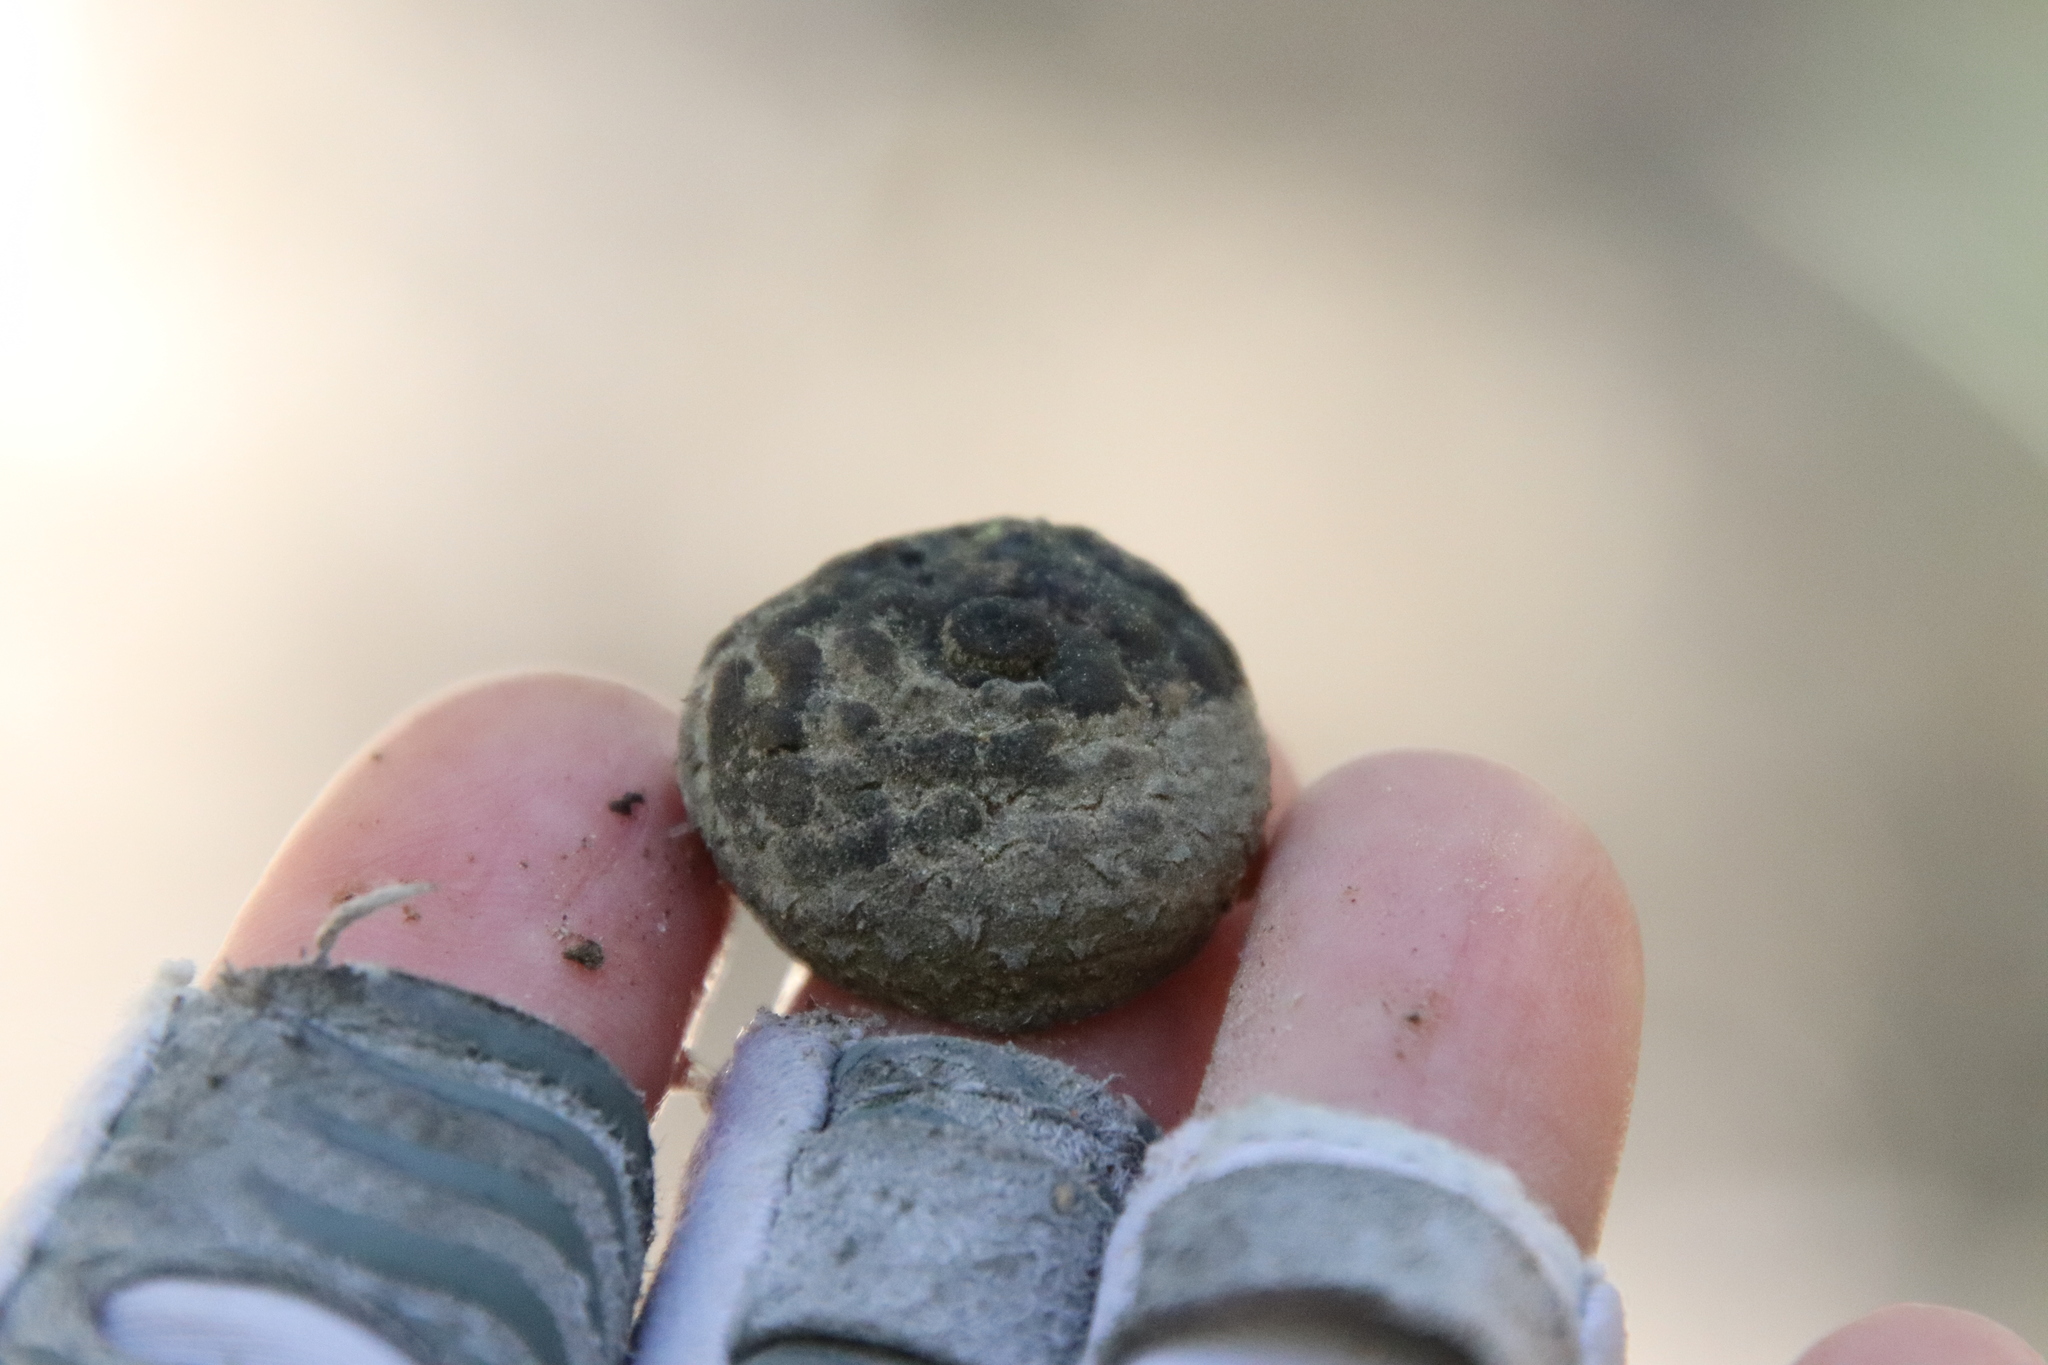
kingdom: Plantae
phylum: Tracheophyta
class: Magnoliopsida
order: Fagales
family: Fagaceae
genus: Quercus
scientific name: Quercus chrysolepis
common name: Canyon live oak
